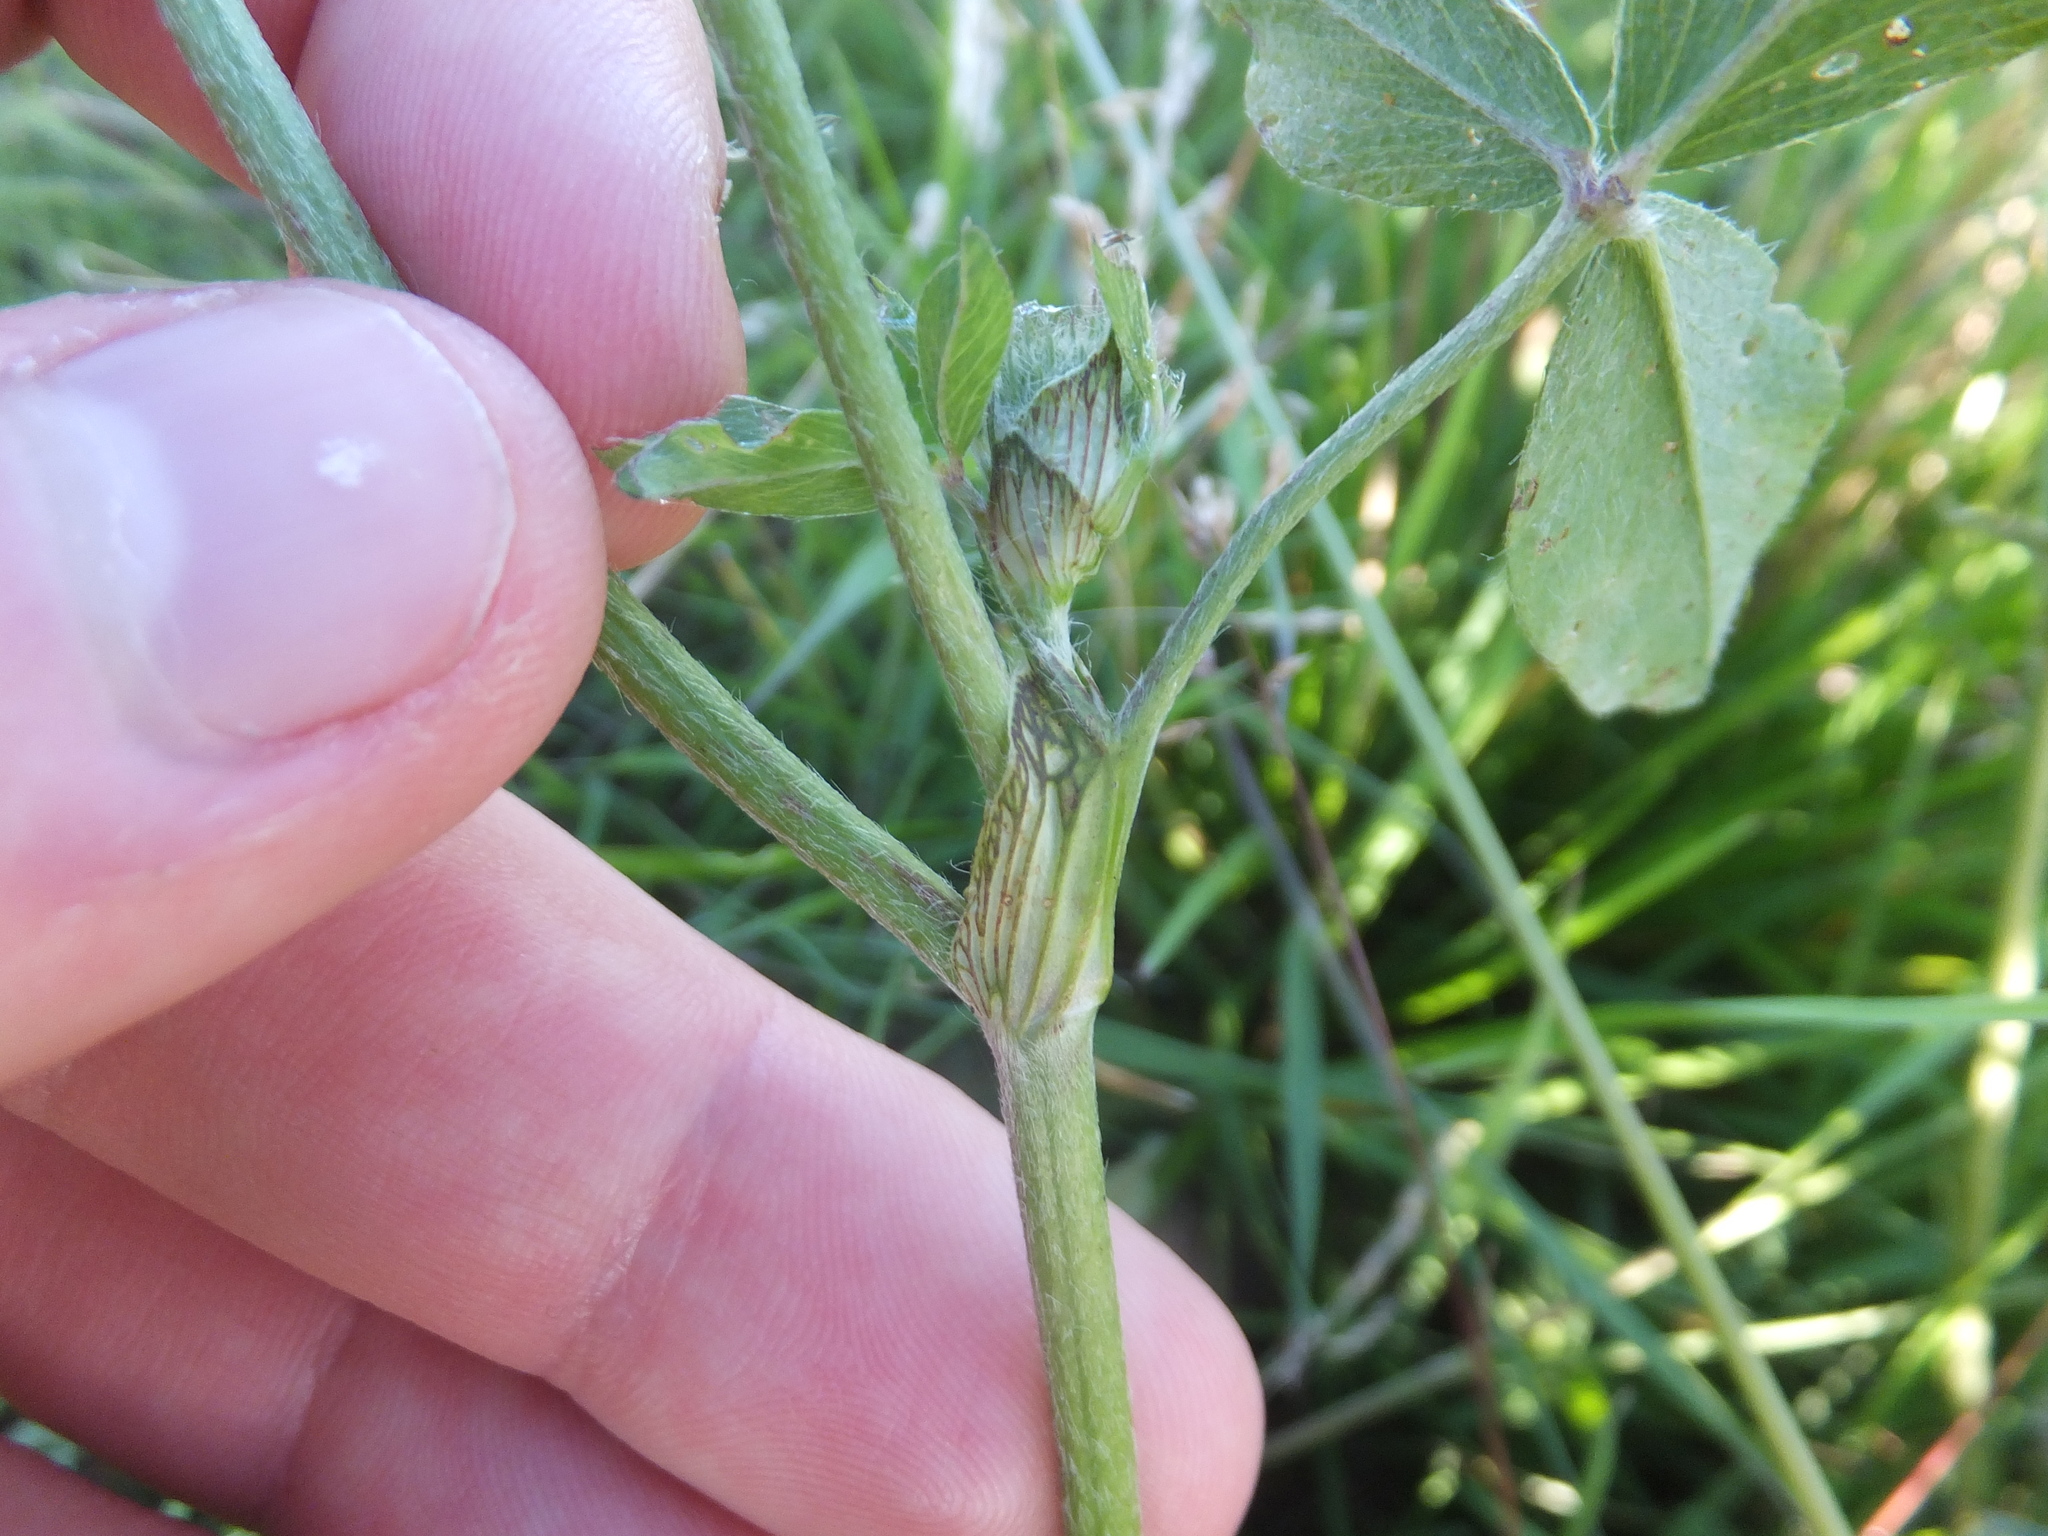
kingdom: Plantae
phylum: Tracheophyta
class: Magnoliopsida
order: Fabales
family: Fabaceae
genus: Trifolium
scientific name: Trifolium pratense
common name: Red clover
